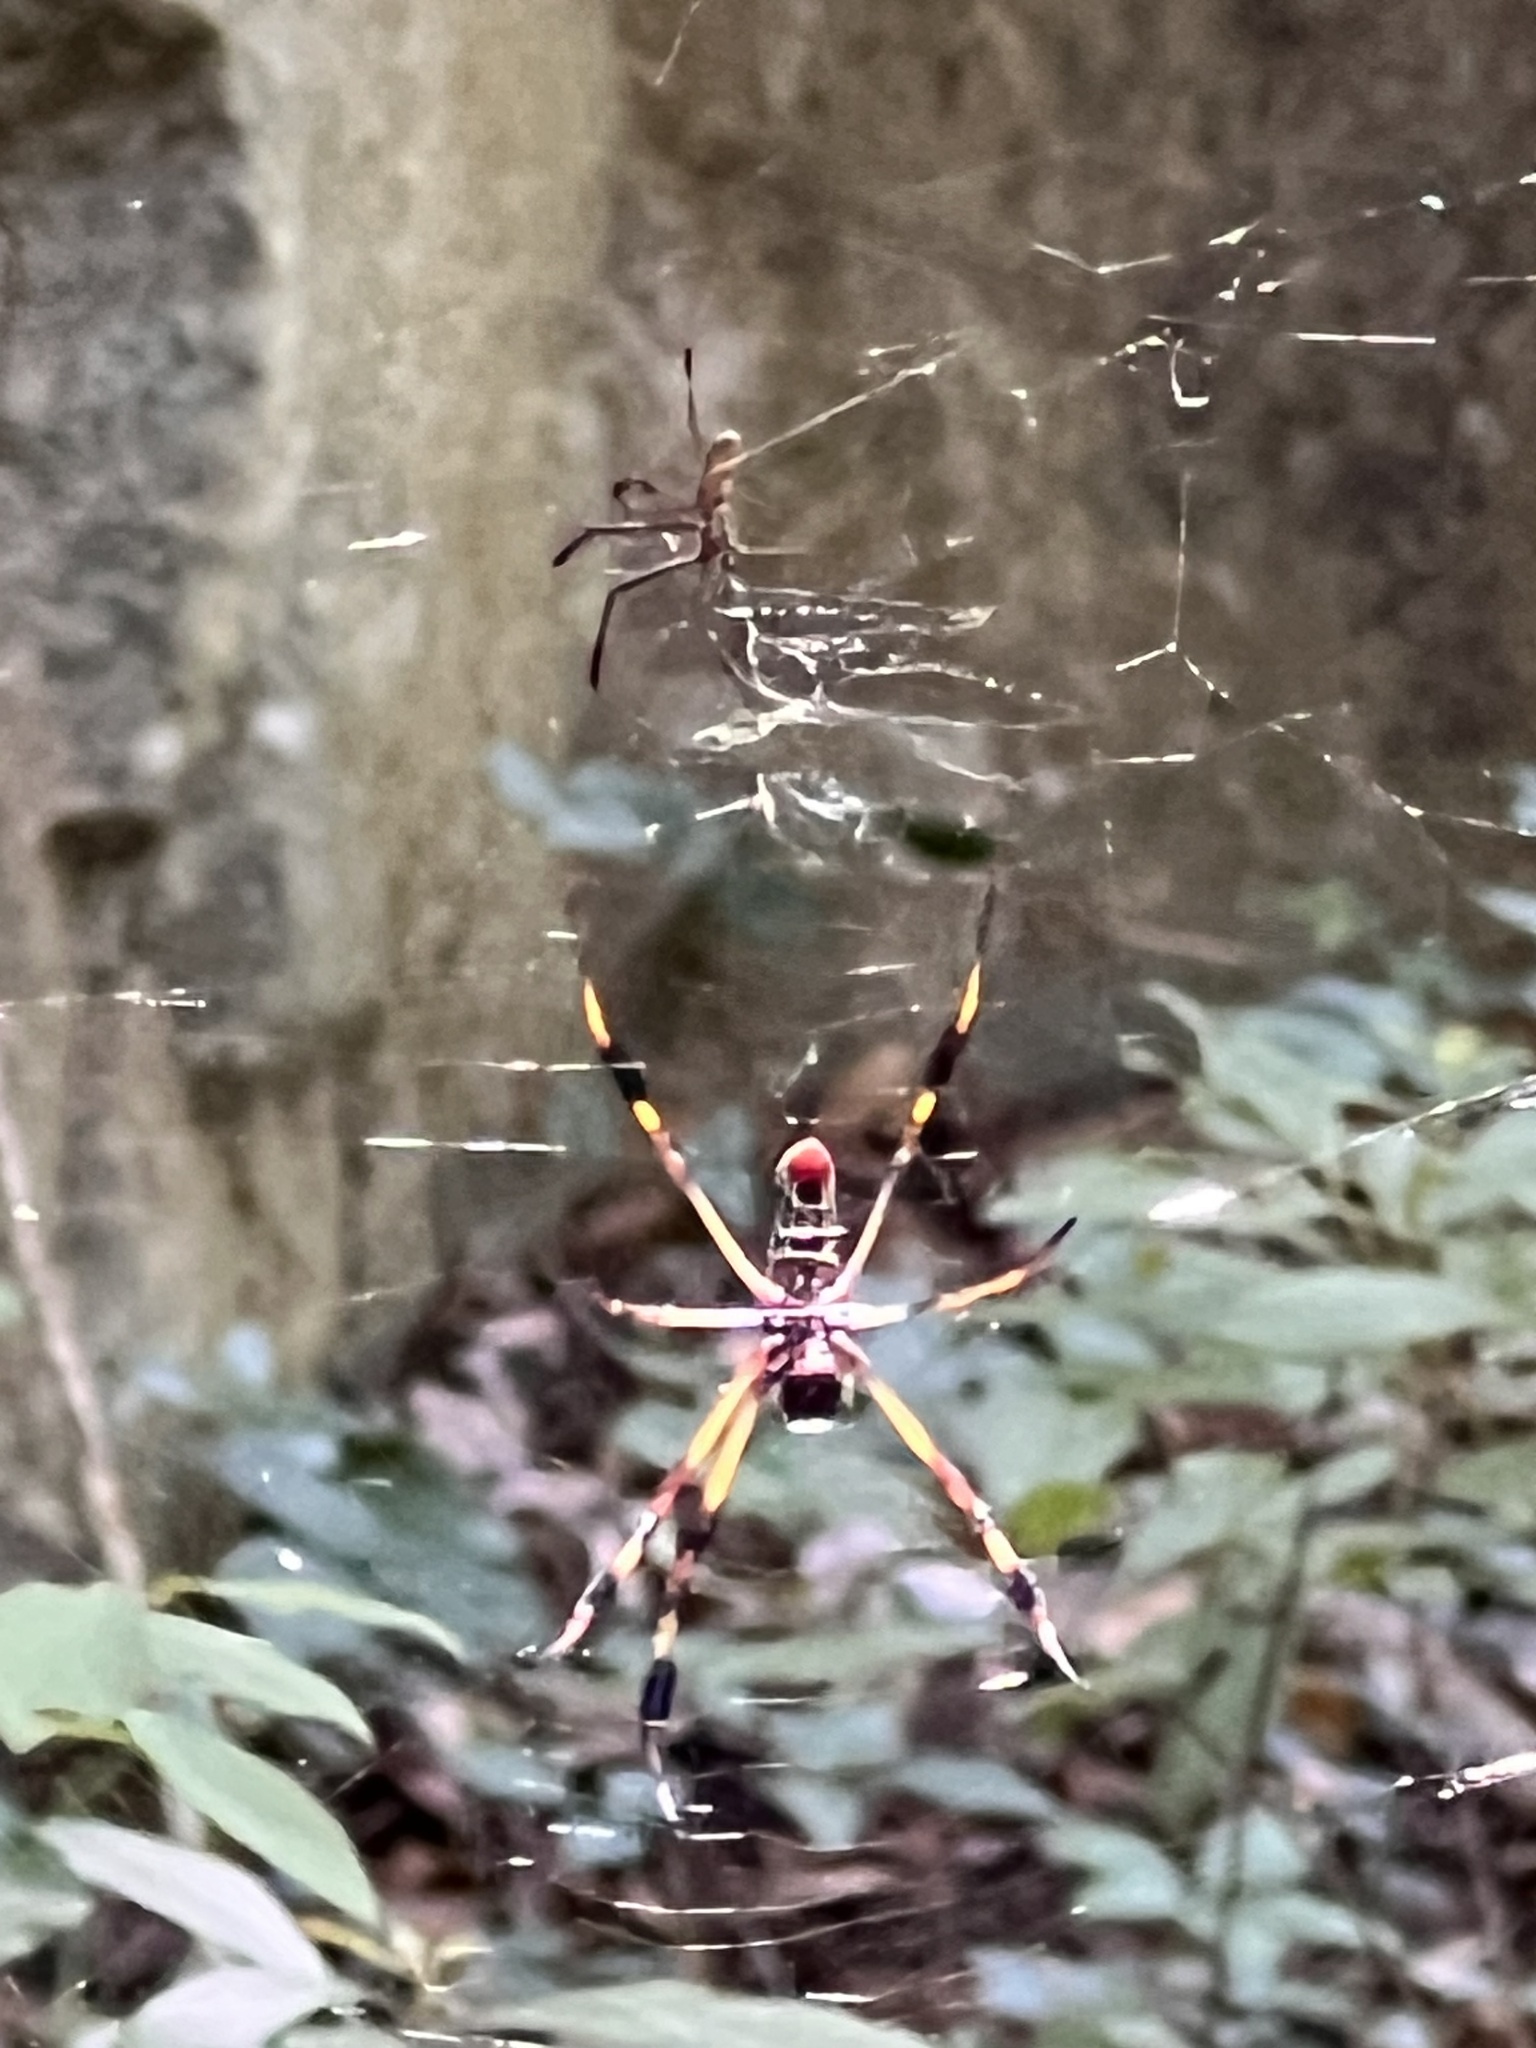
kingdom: Animalia
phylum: Arthropoda
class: Arachnida
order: Araneae
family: Araneidae
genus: Trichonephila
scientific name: Trichonephila clavipes
